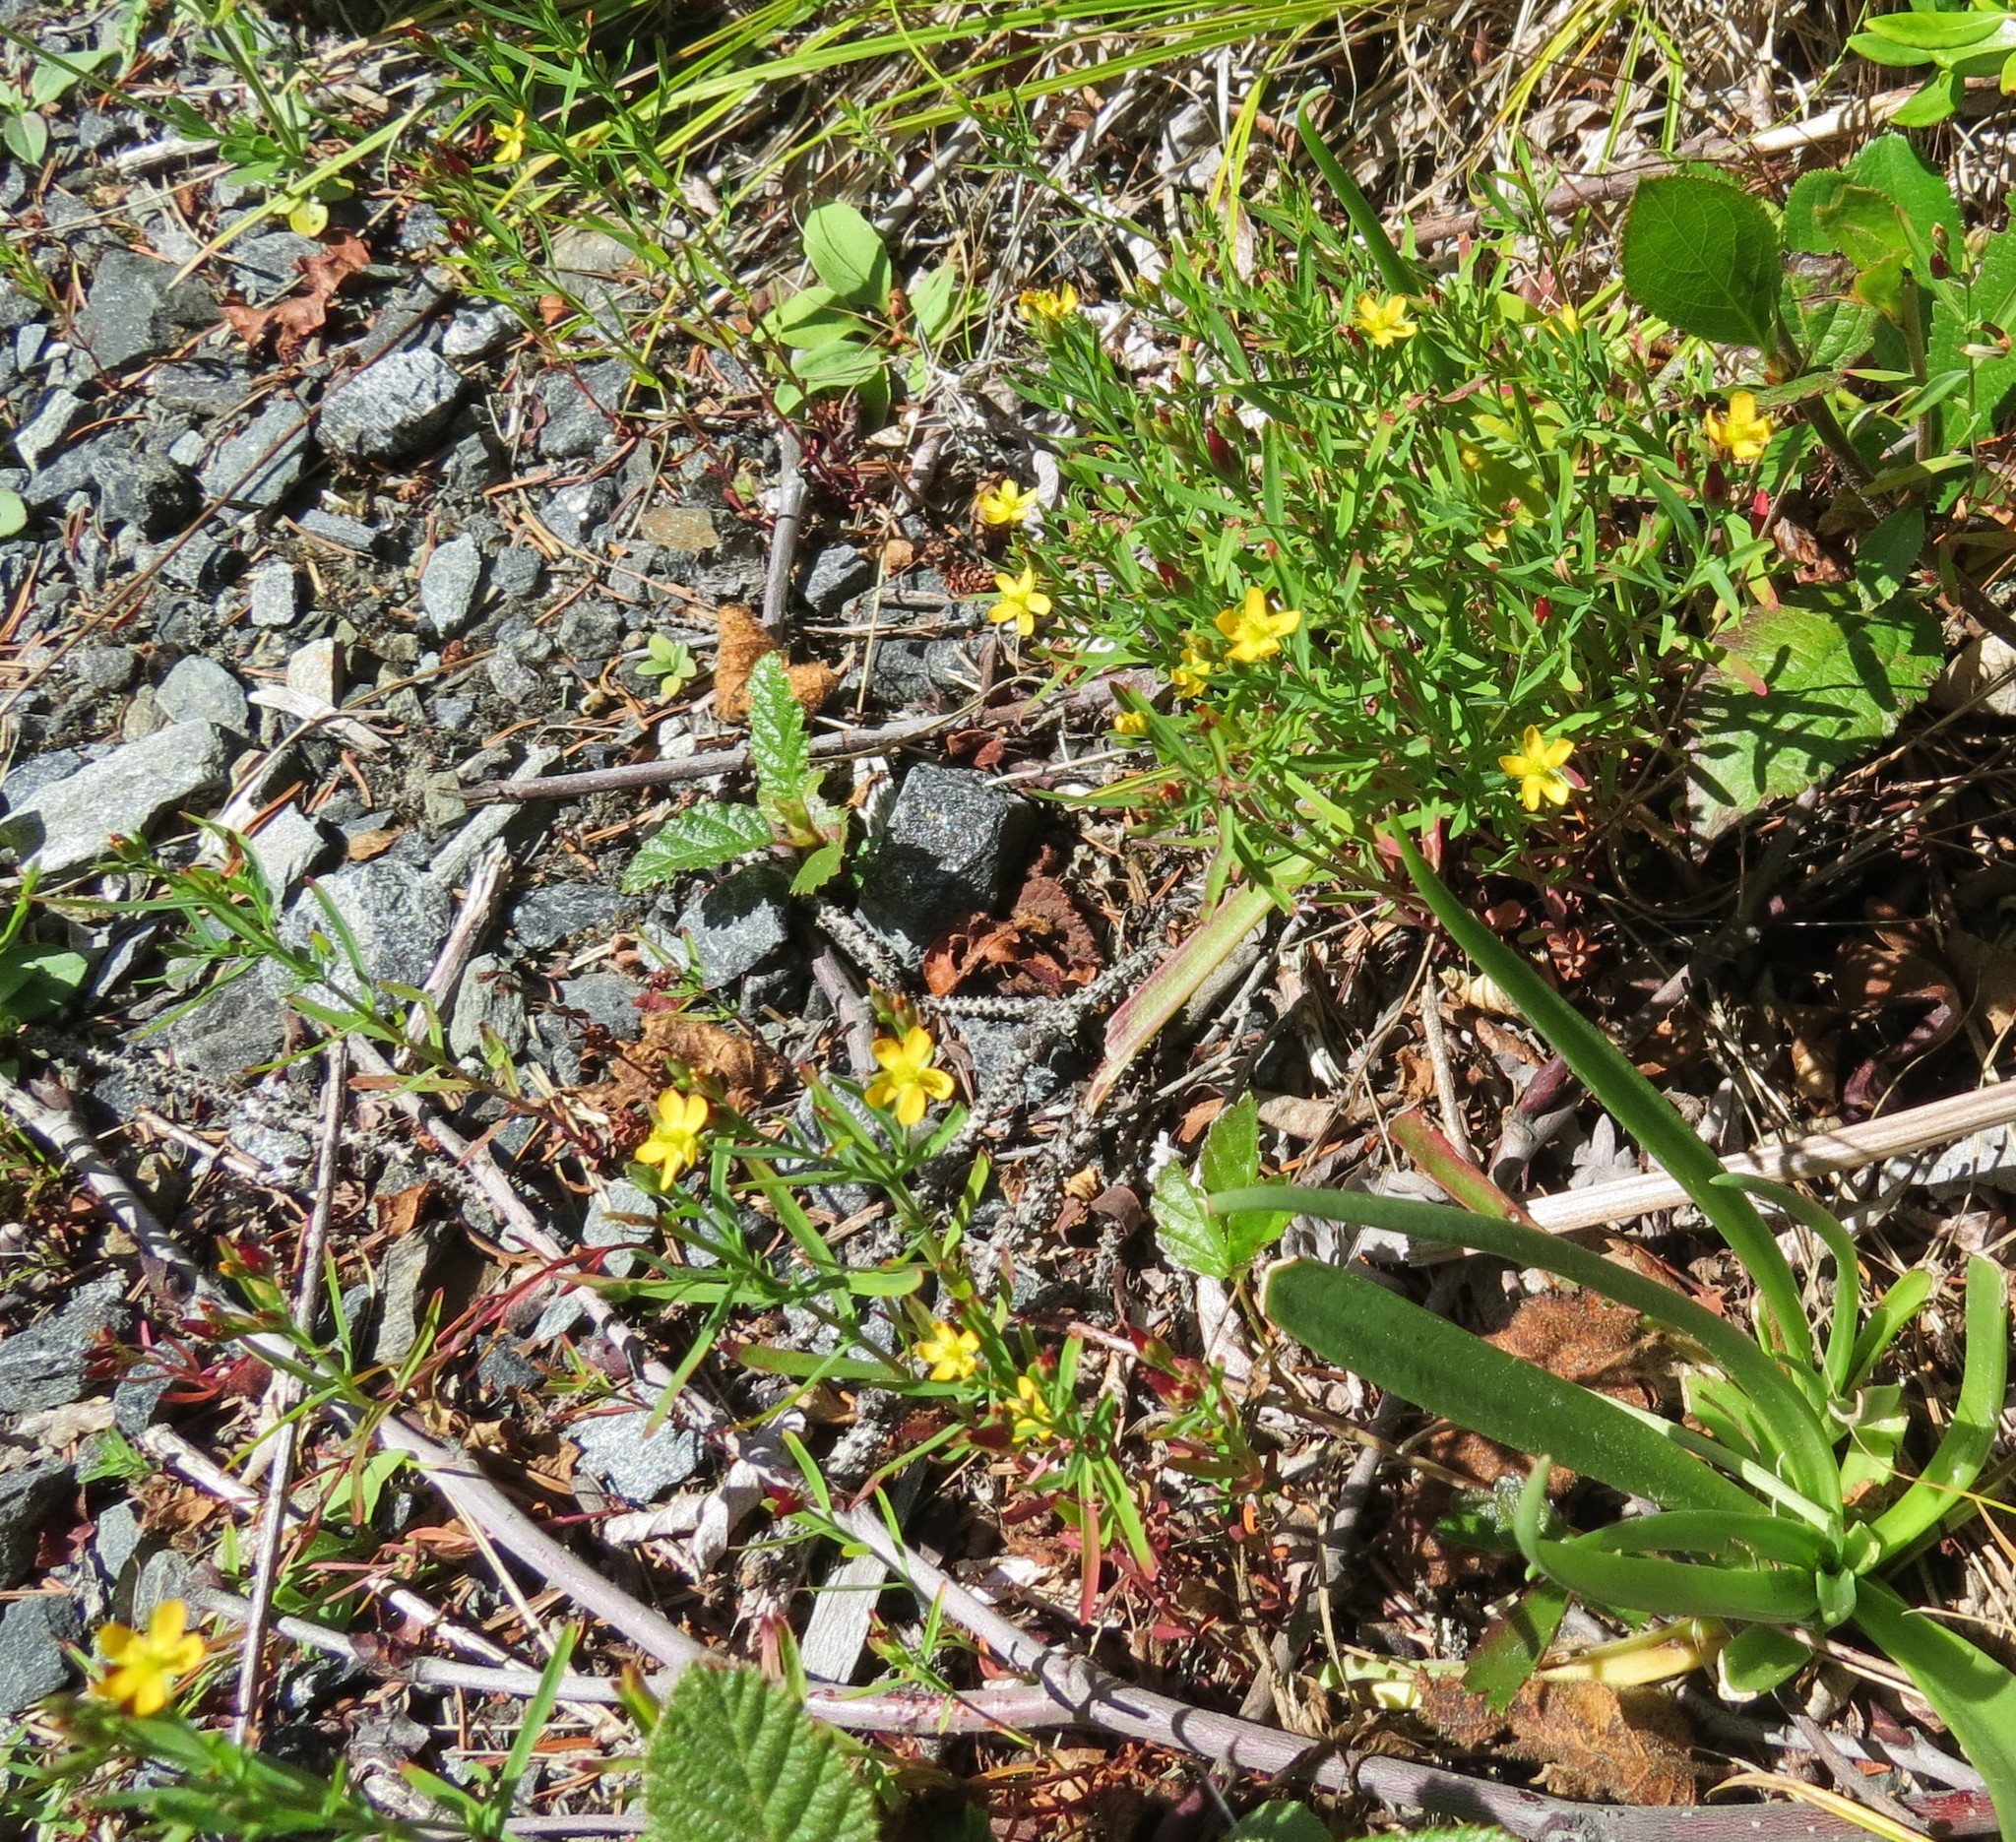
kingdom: Plantae
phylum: Tracheophyta
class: Magnoliopsida
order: Malpighiales
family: Hypericaceae
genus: Hypericum
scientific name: Hypericum canadense
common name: Irish st. john's-wort
